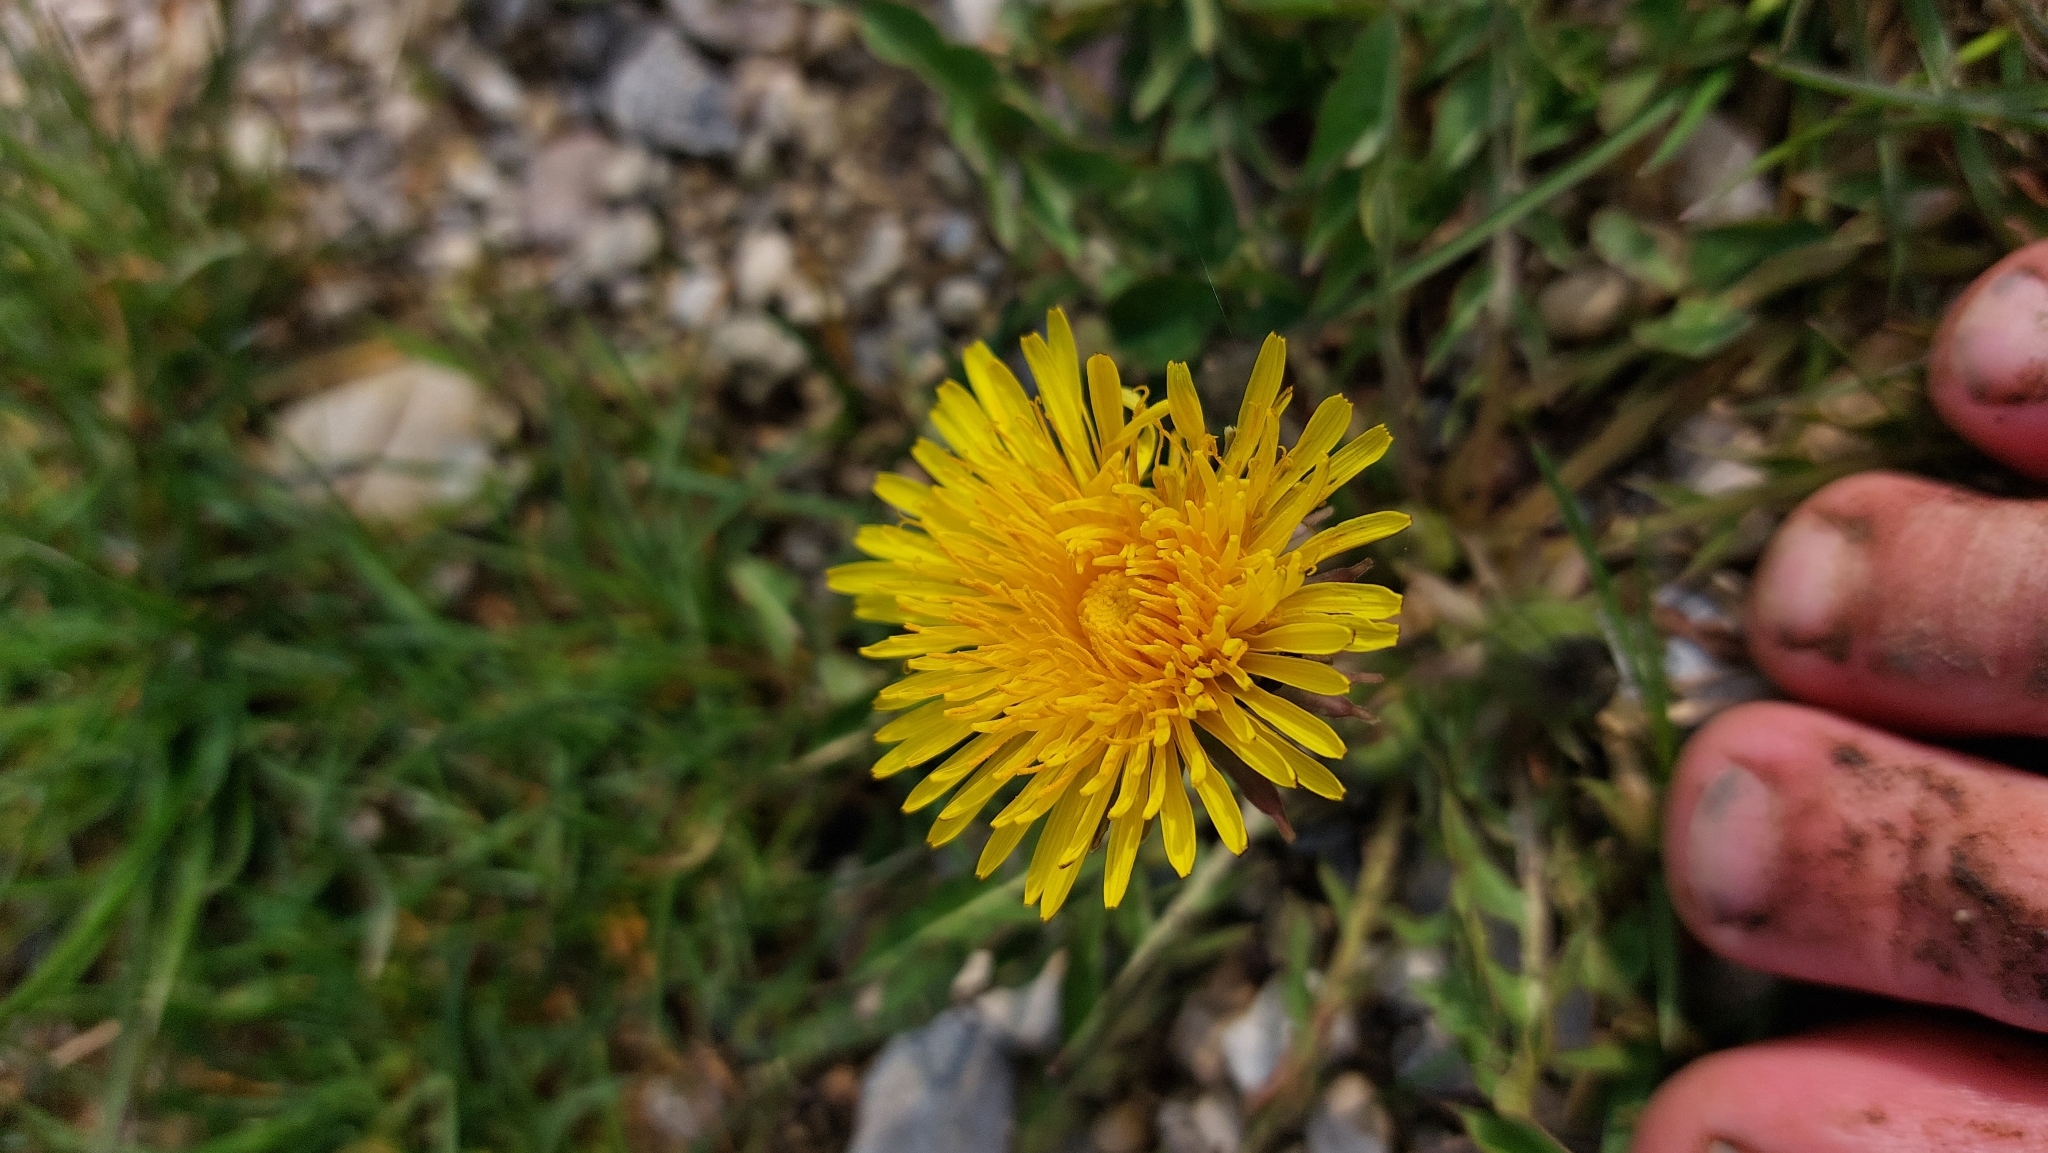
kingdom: Plantae
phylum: Tracheophyta
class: Magnoliopsida
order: Asterales
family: Asteraceae
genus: Taraxacum
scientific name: Taraxacum
